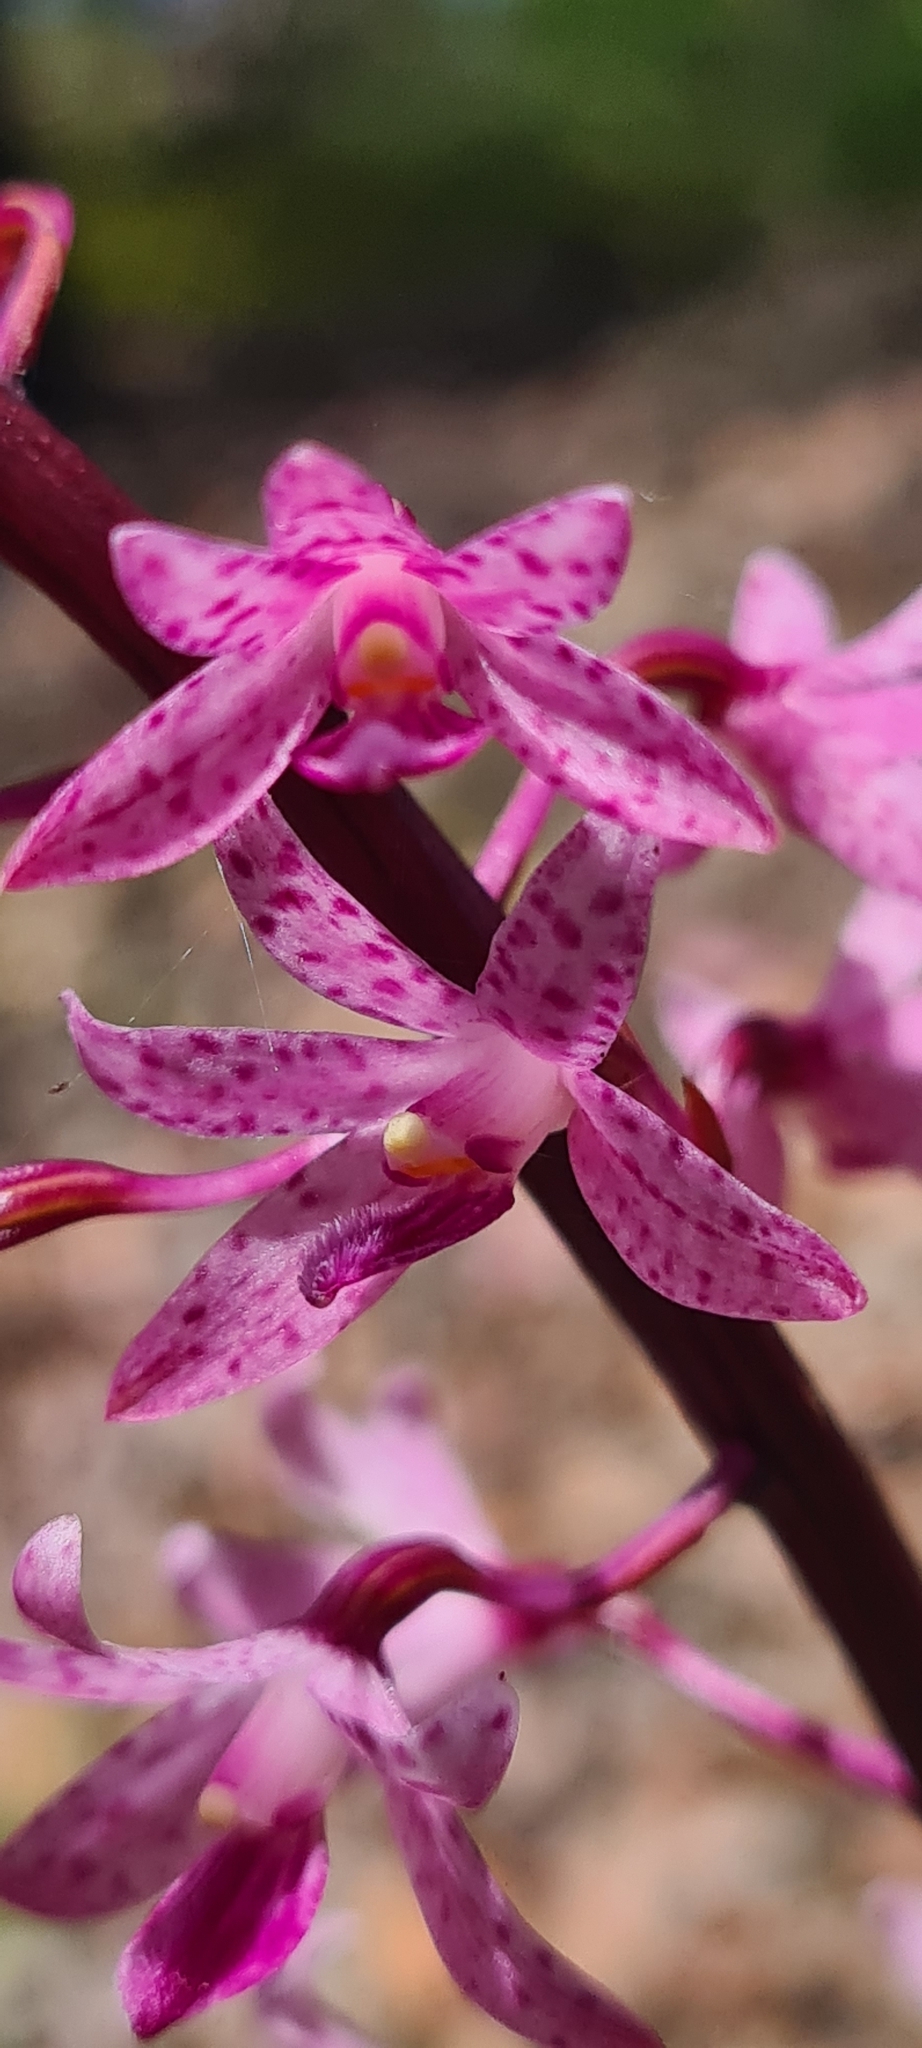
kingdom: Plantae
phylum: Tracheophyta
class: Liliopsida
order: Asparagales
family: Orchidaceae
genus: Dipodium
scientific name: Dipodium roseum
